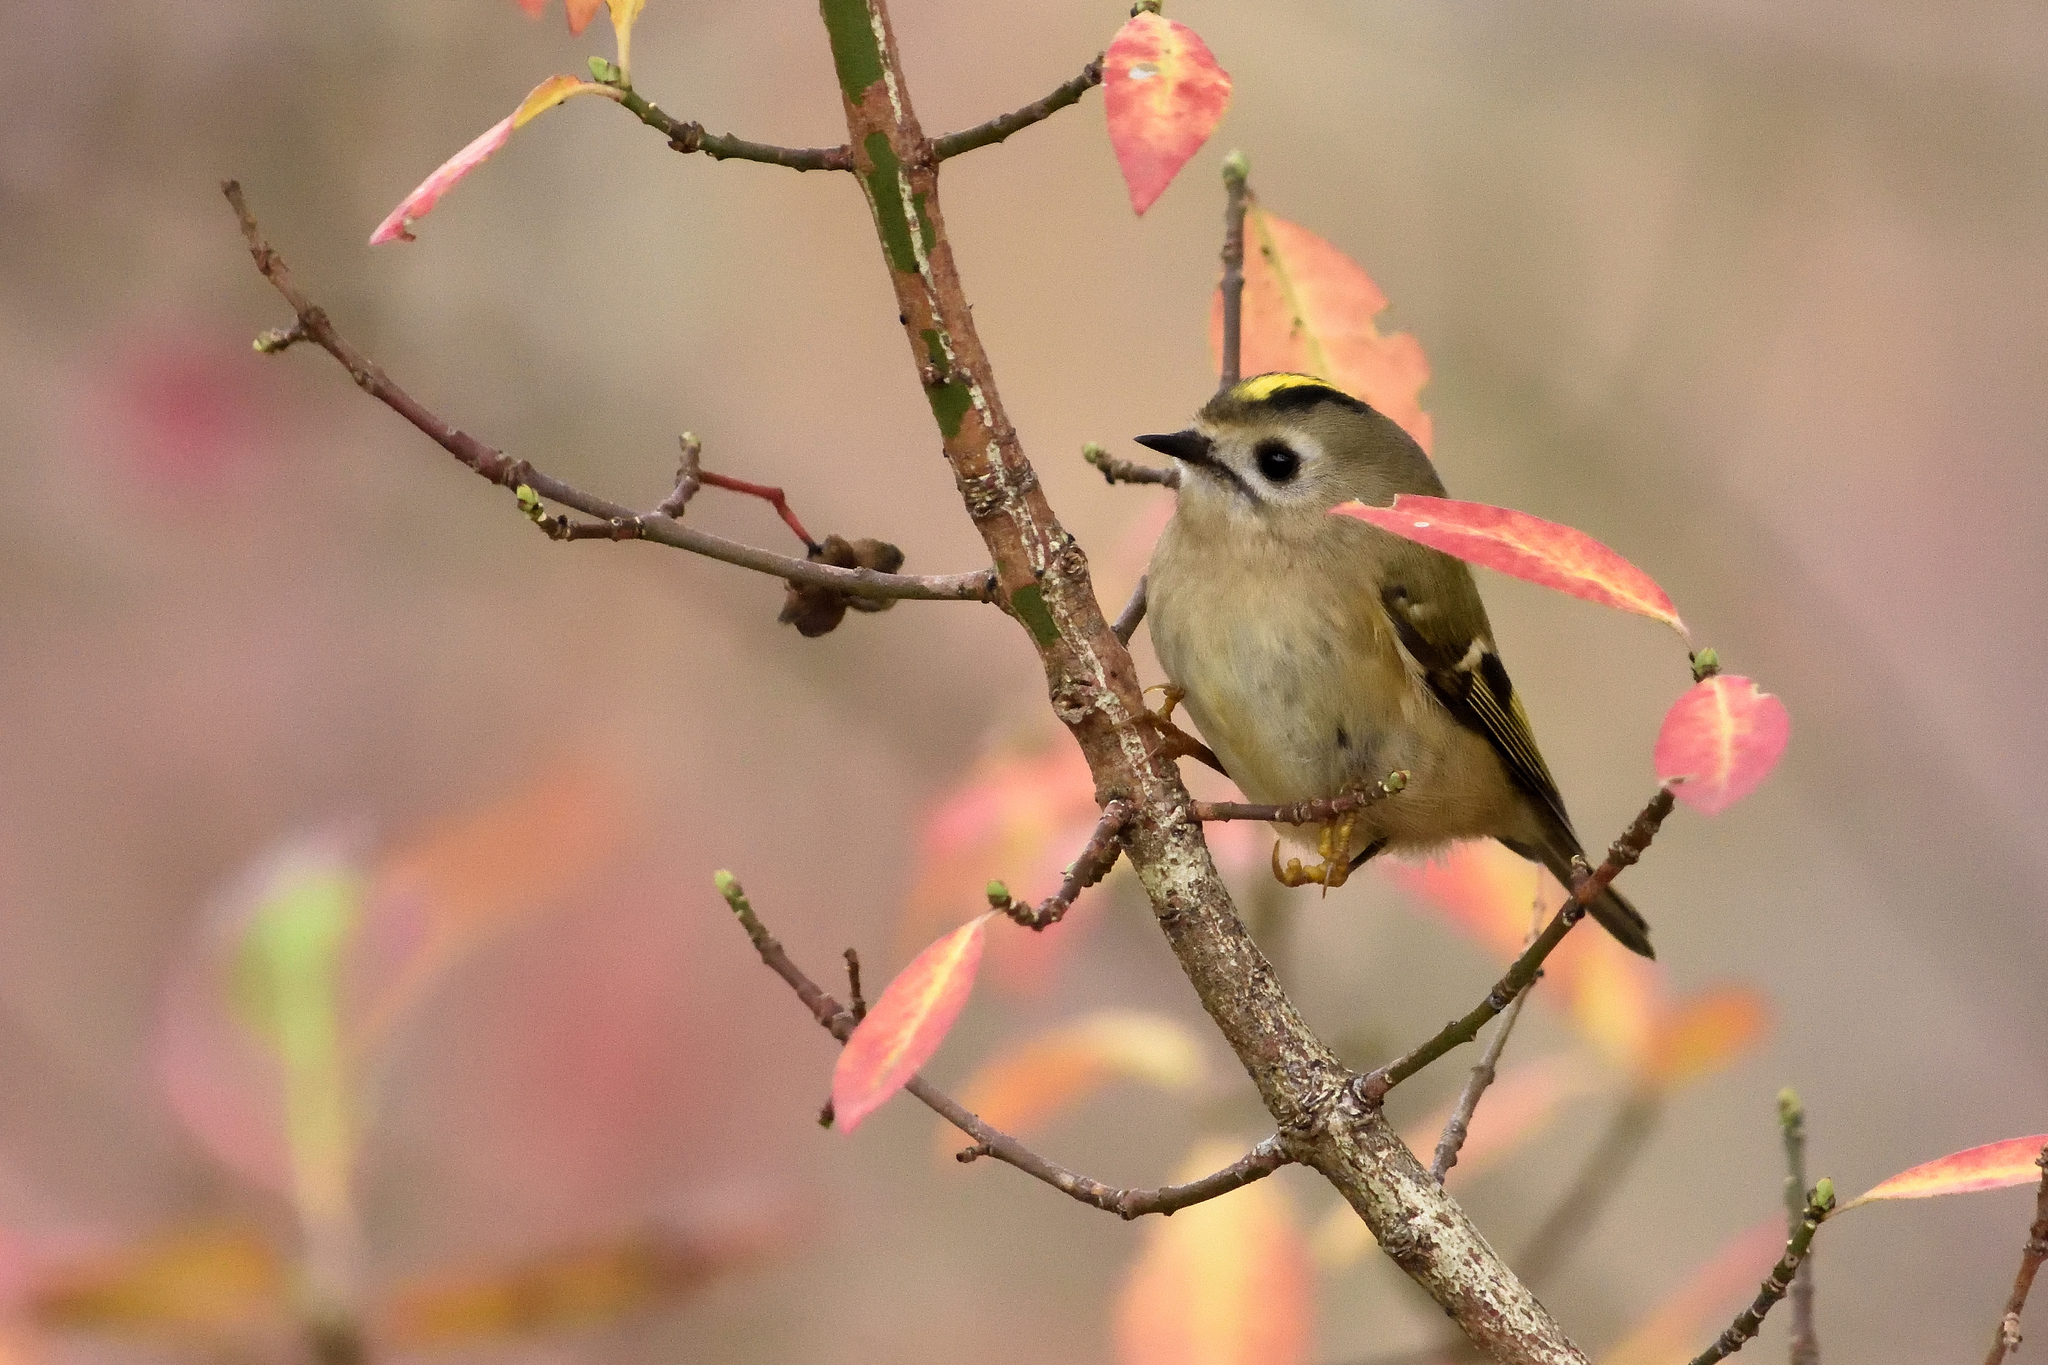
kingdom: Animalia
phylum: Chordata
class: Aves
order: Passeriformes
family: Regulidae
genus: Regulus
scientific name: Regulus regulus
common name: Goldcrest
